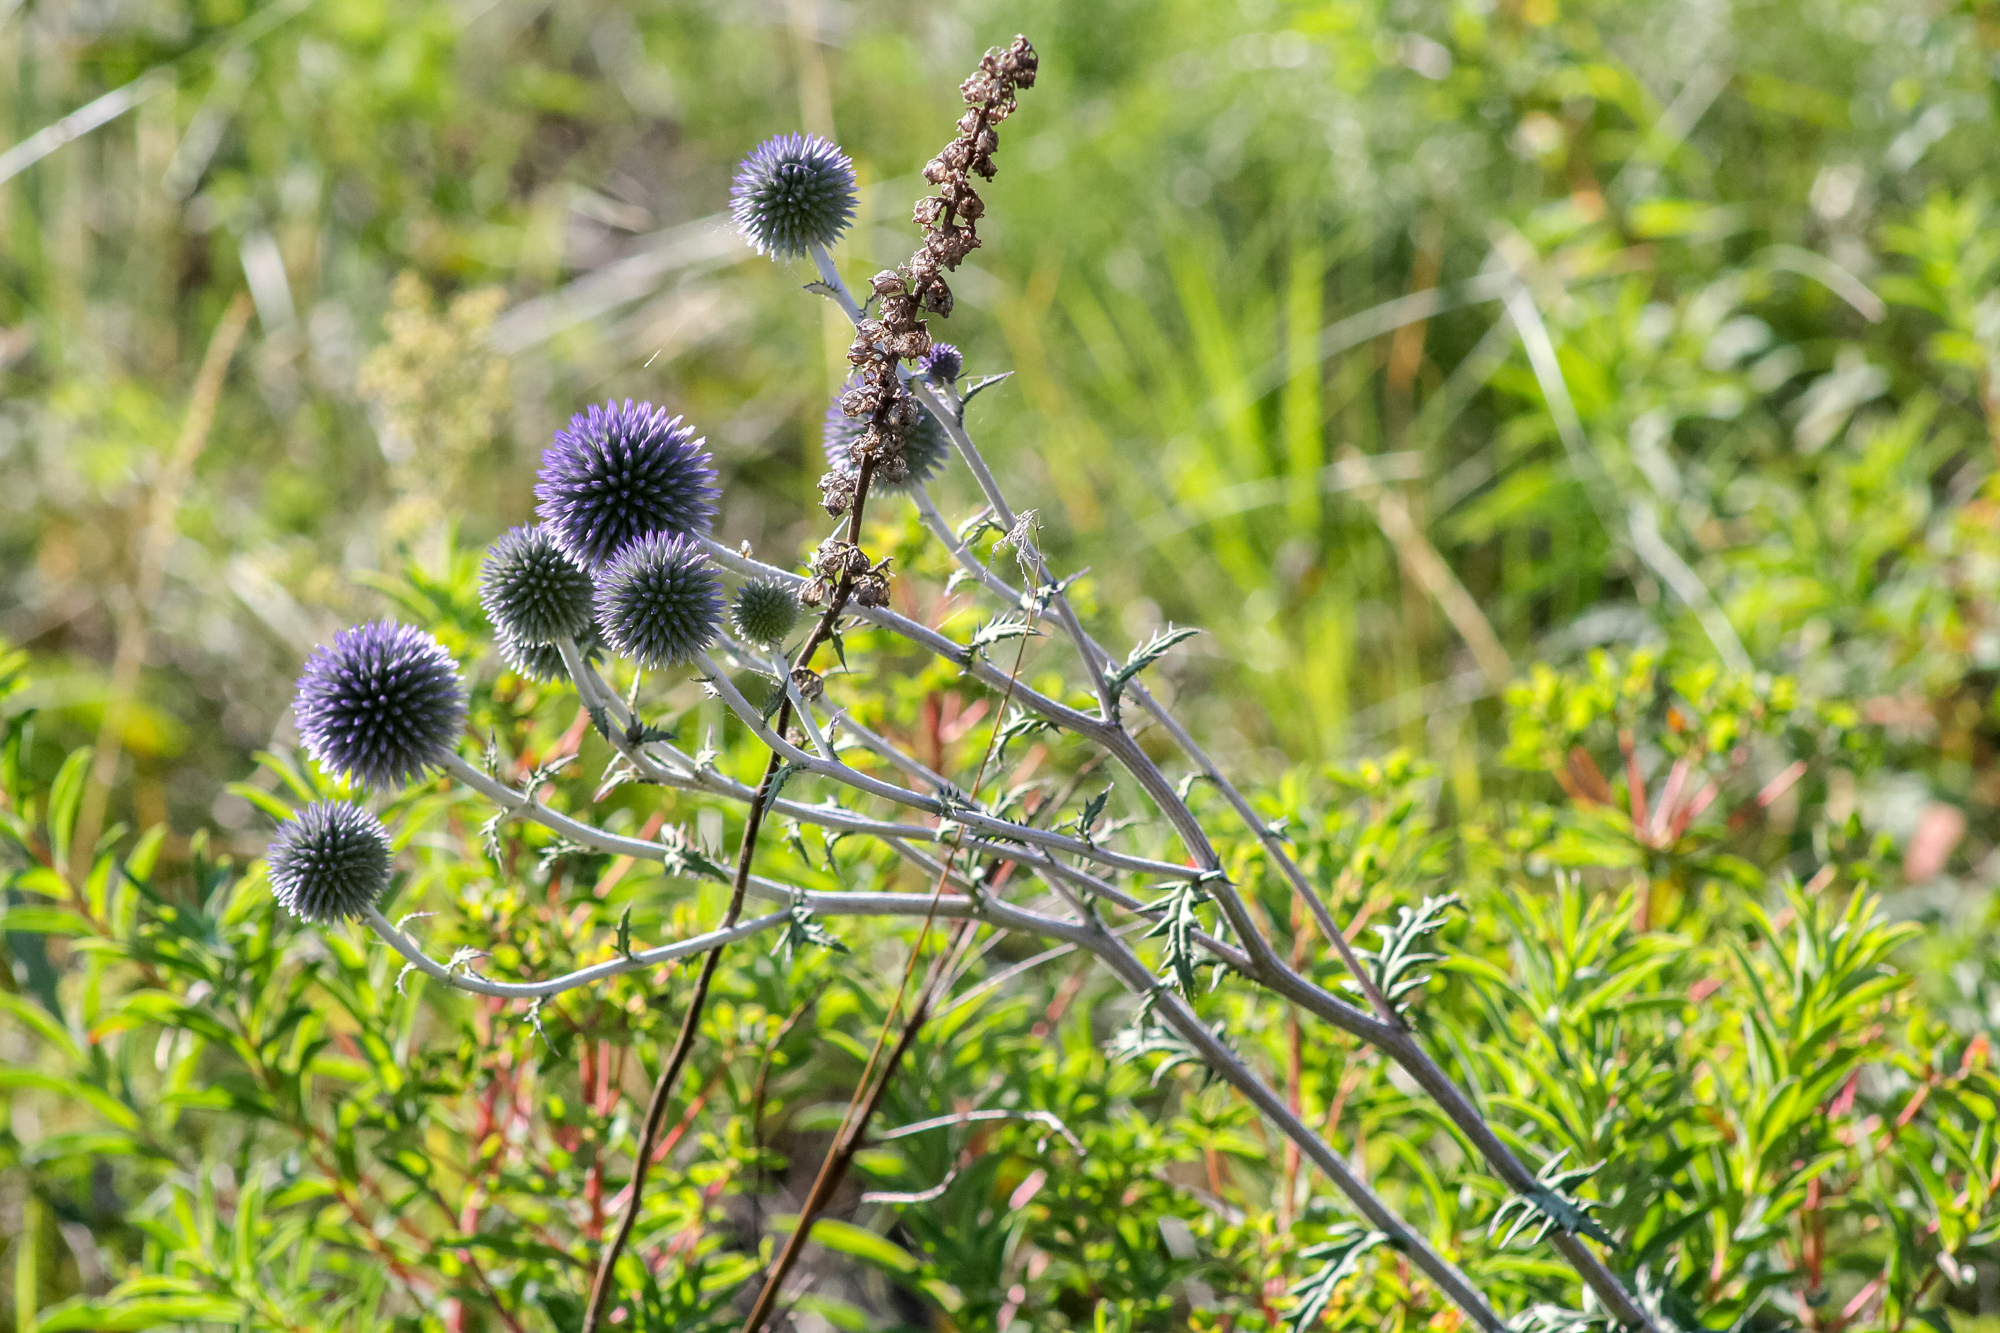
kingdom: Plantae
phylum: Tracheophyta
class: Magnoliopsida
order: Asterales
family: Asteraceae
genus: Echinops
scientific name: Echinops ritro
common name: Globe thistle
